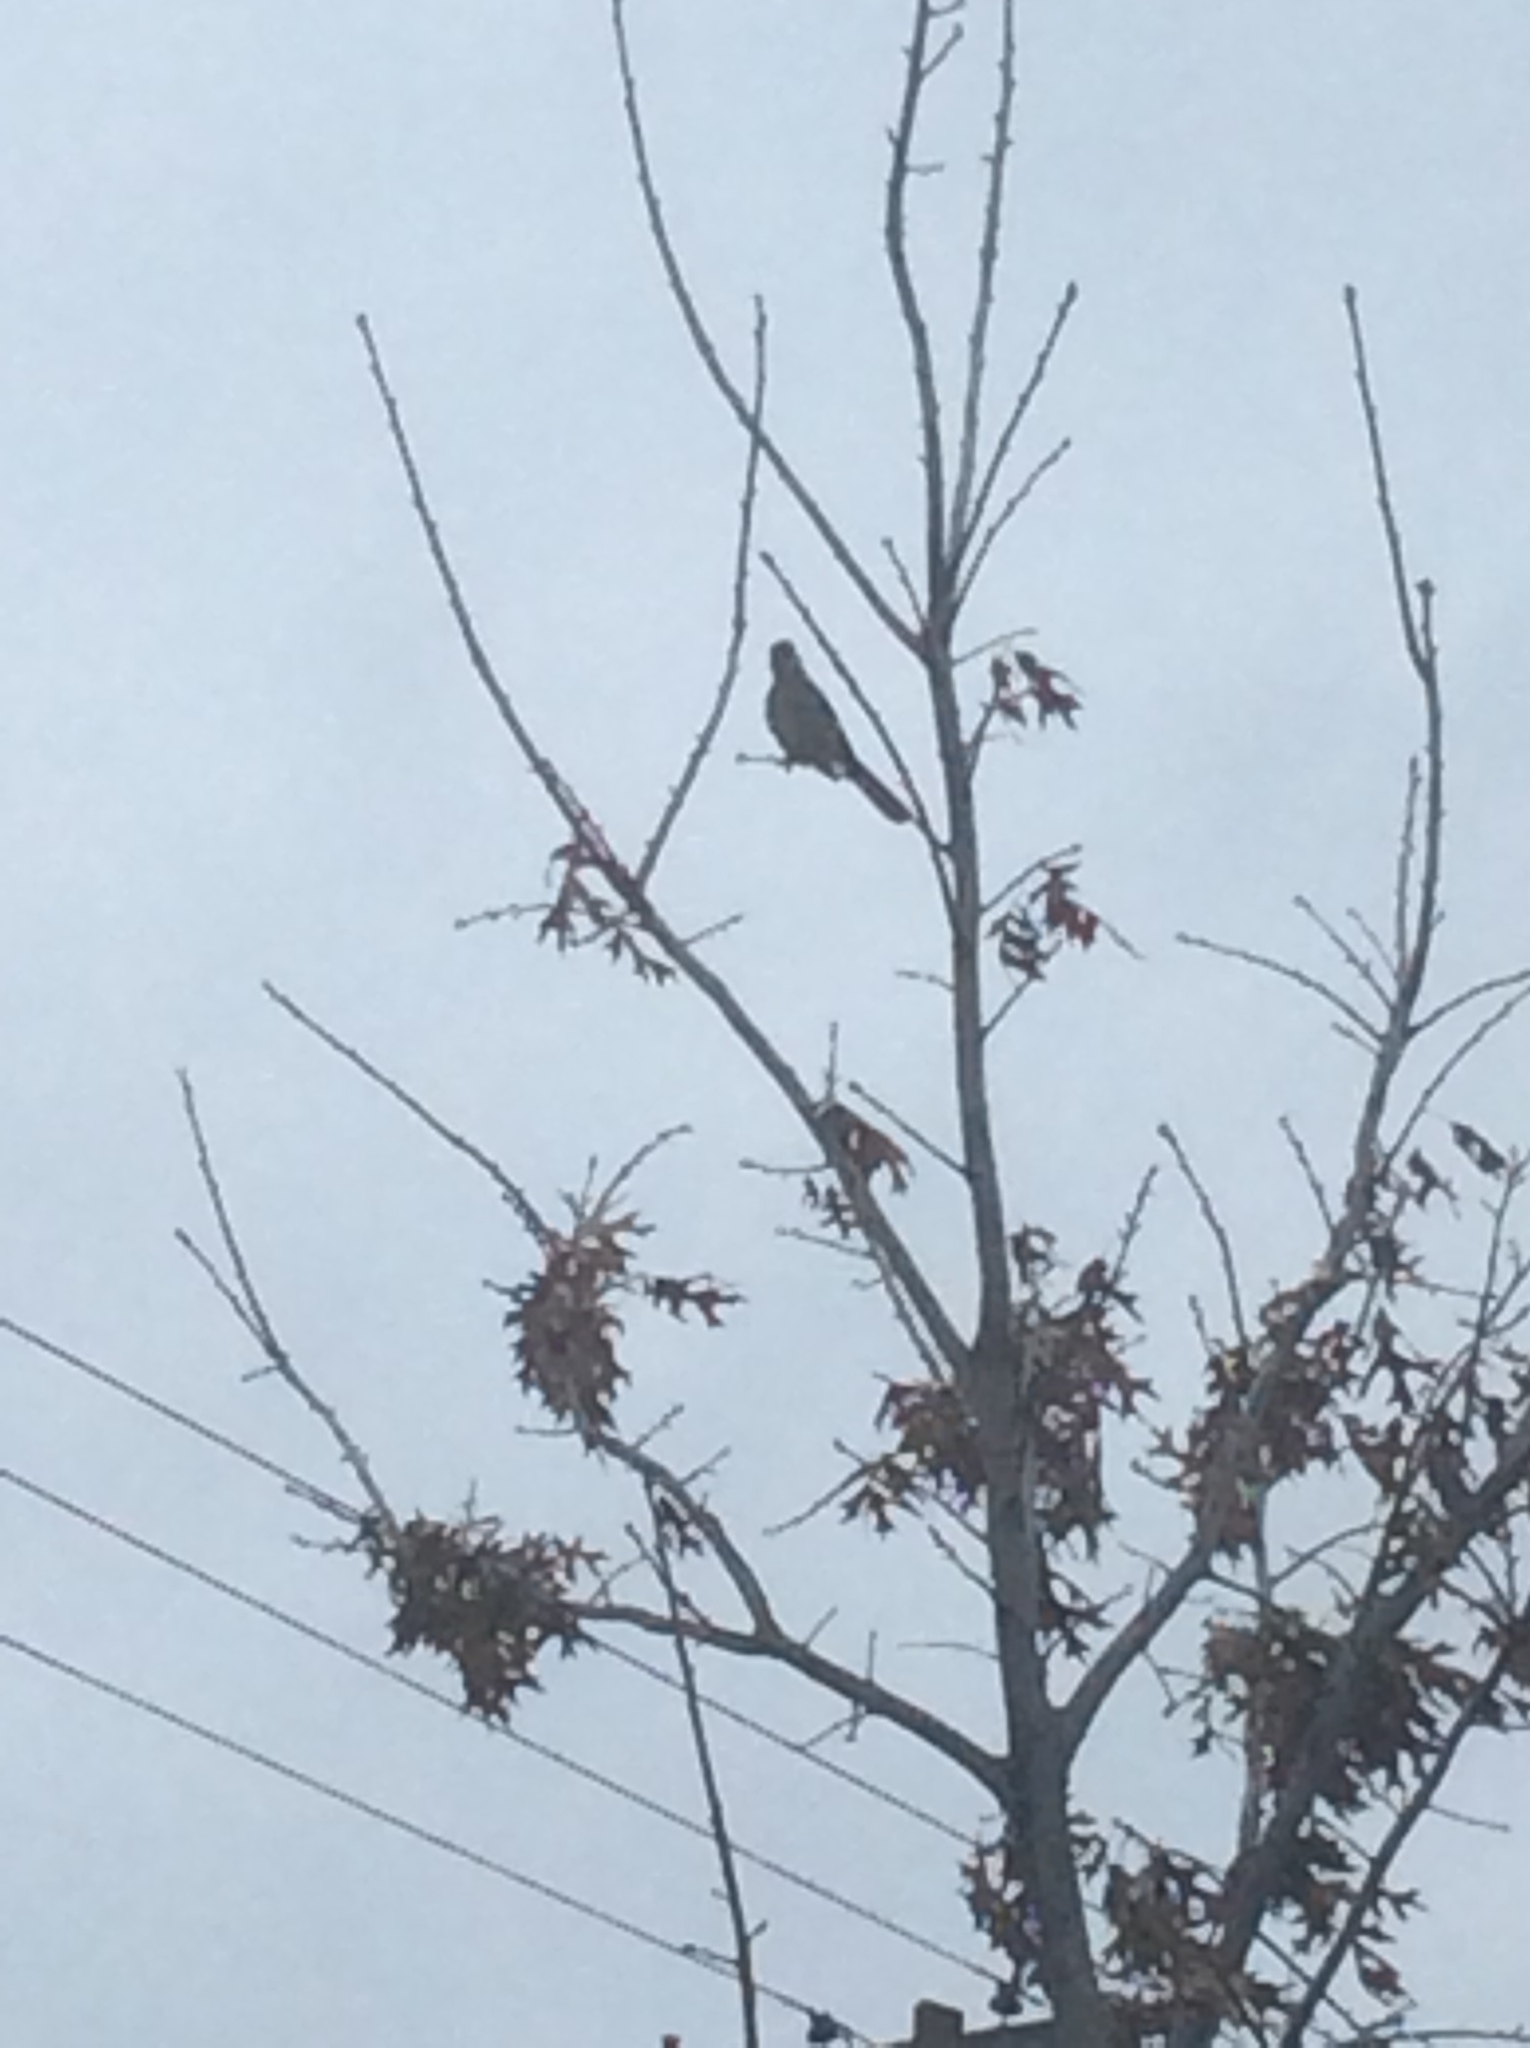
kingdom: Animalia
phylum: Chordata
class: Aves
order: Passeriformes
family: Mimidae
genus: Mimus
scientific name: Mimus polyglottos
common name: Northern mockingbird
